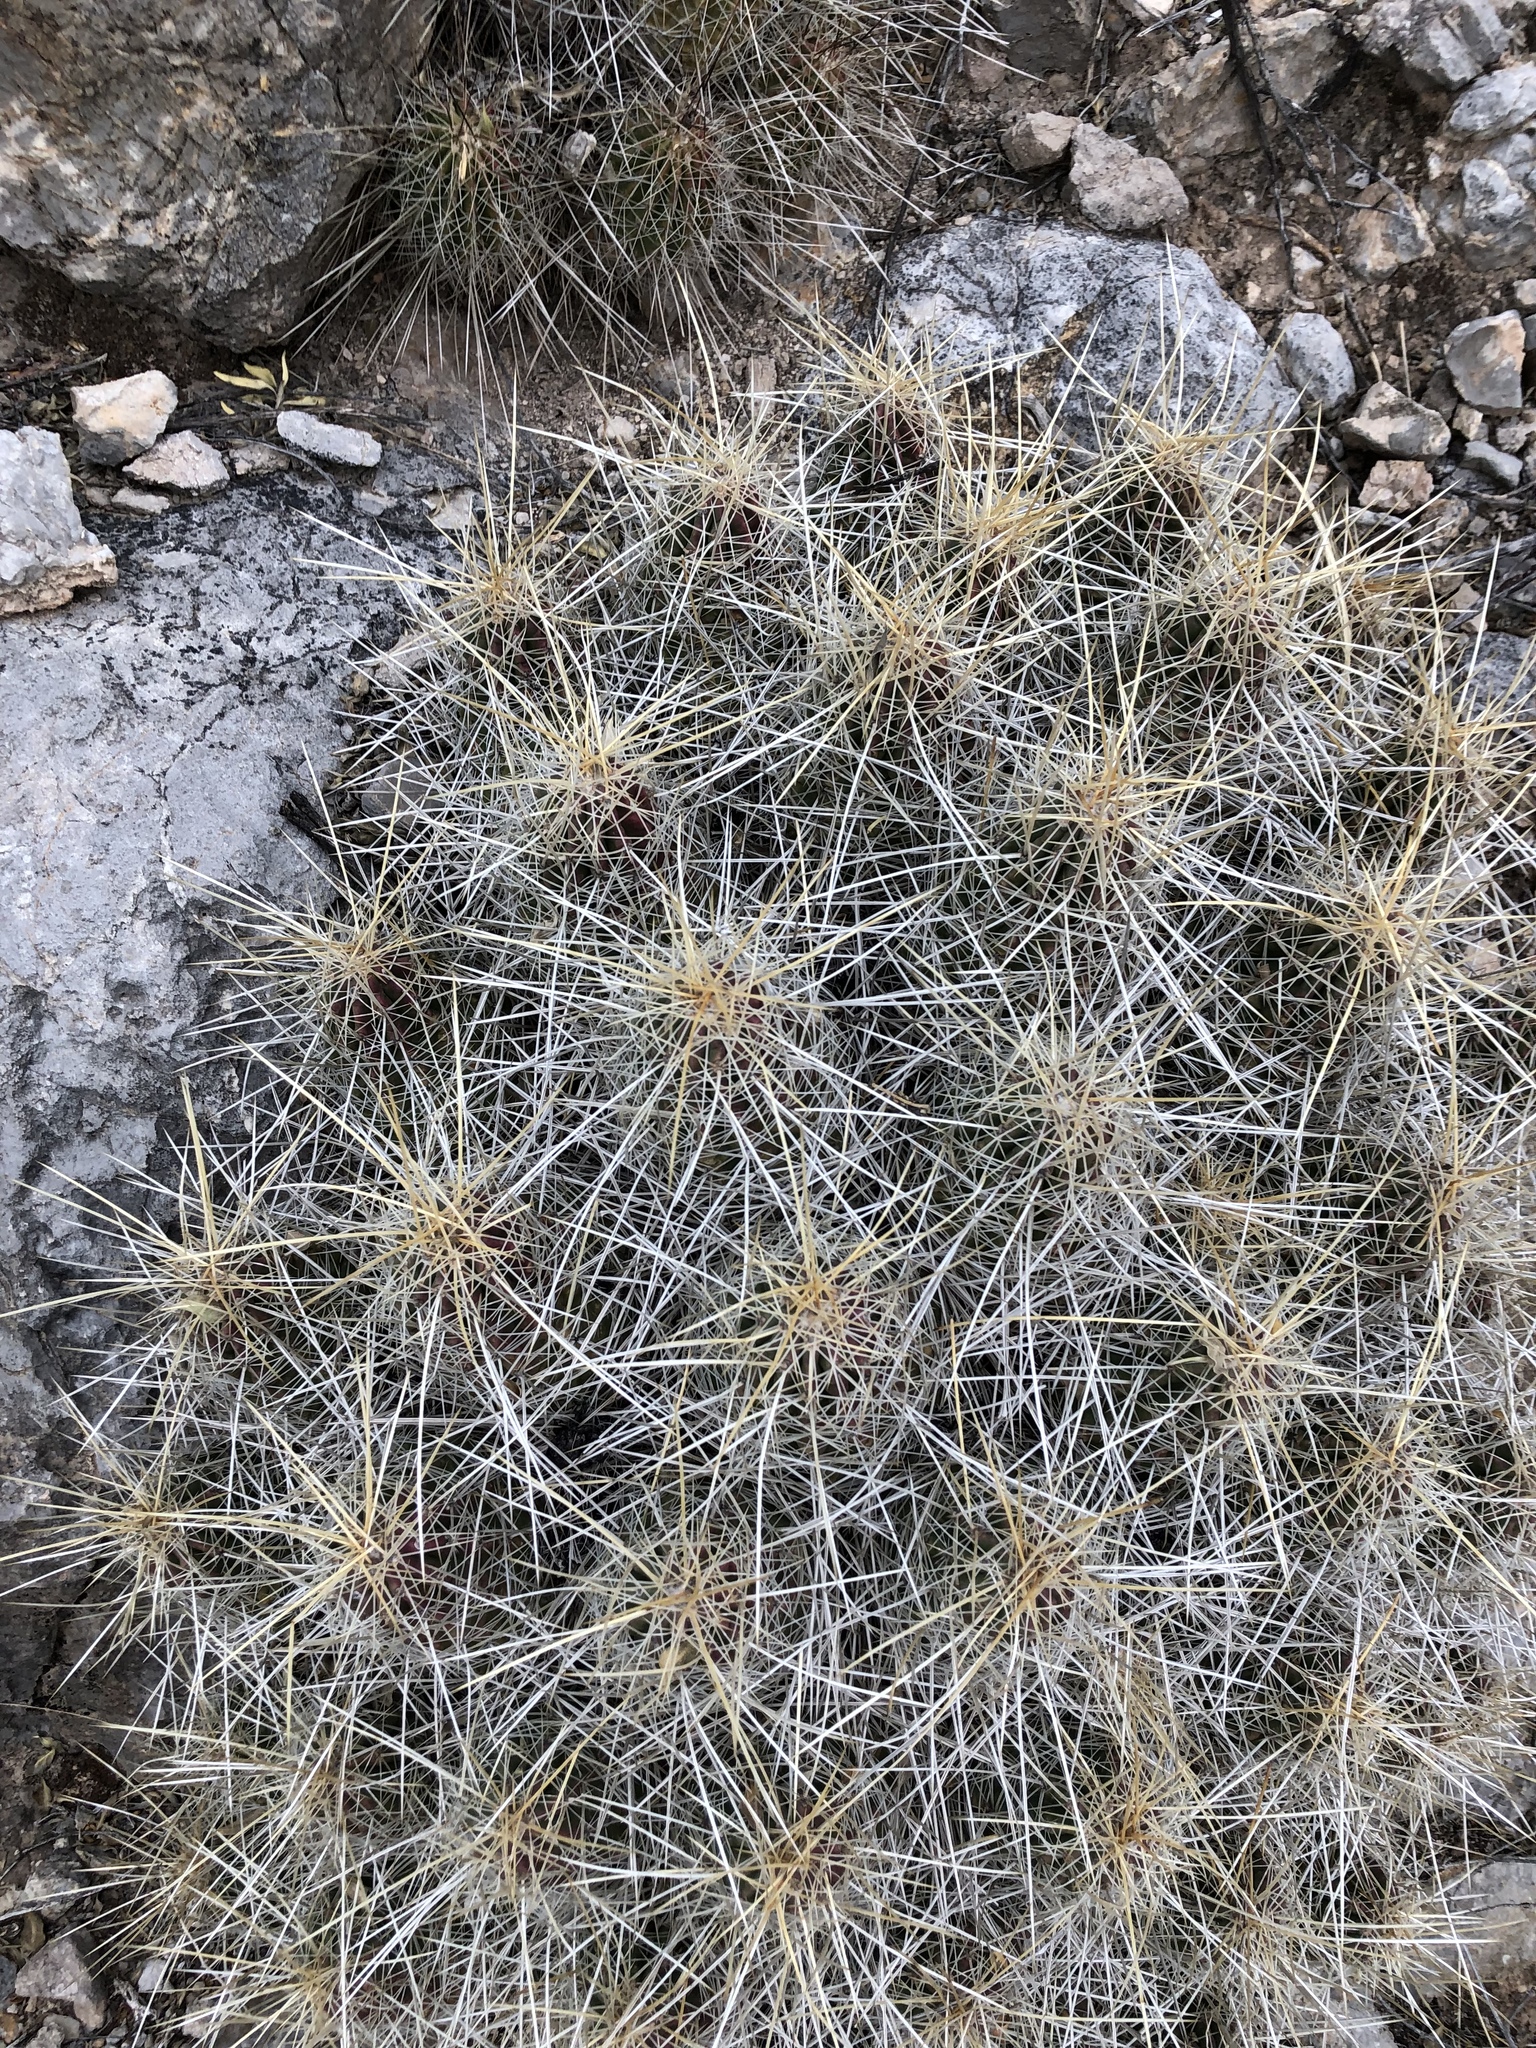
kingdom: Plantae
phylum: Tracheophyta
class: Magnoliopsida
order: Caryophyllales
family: Cactaceae
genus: Echinocereus
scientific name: Echinocereus stramineus
